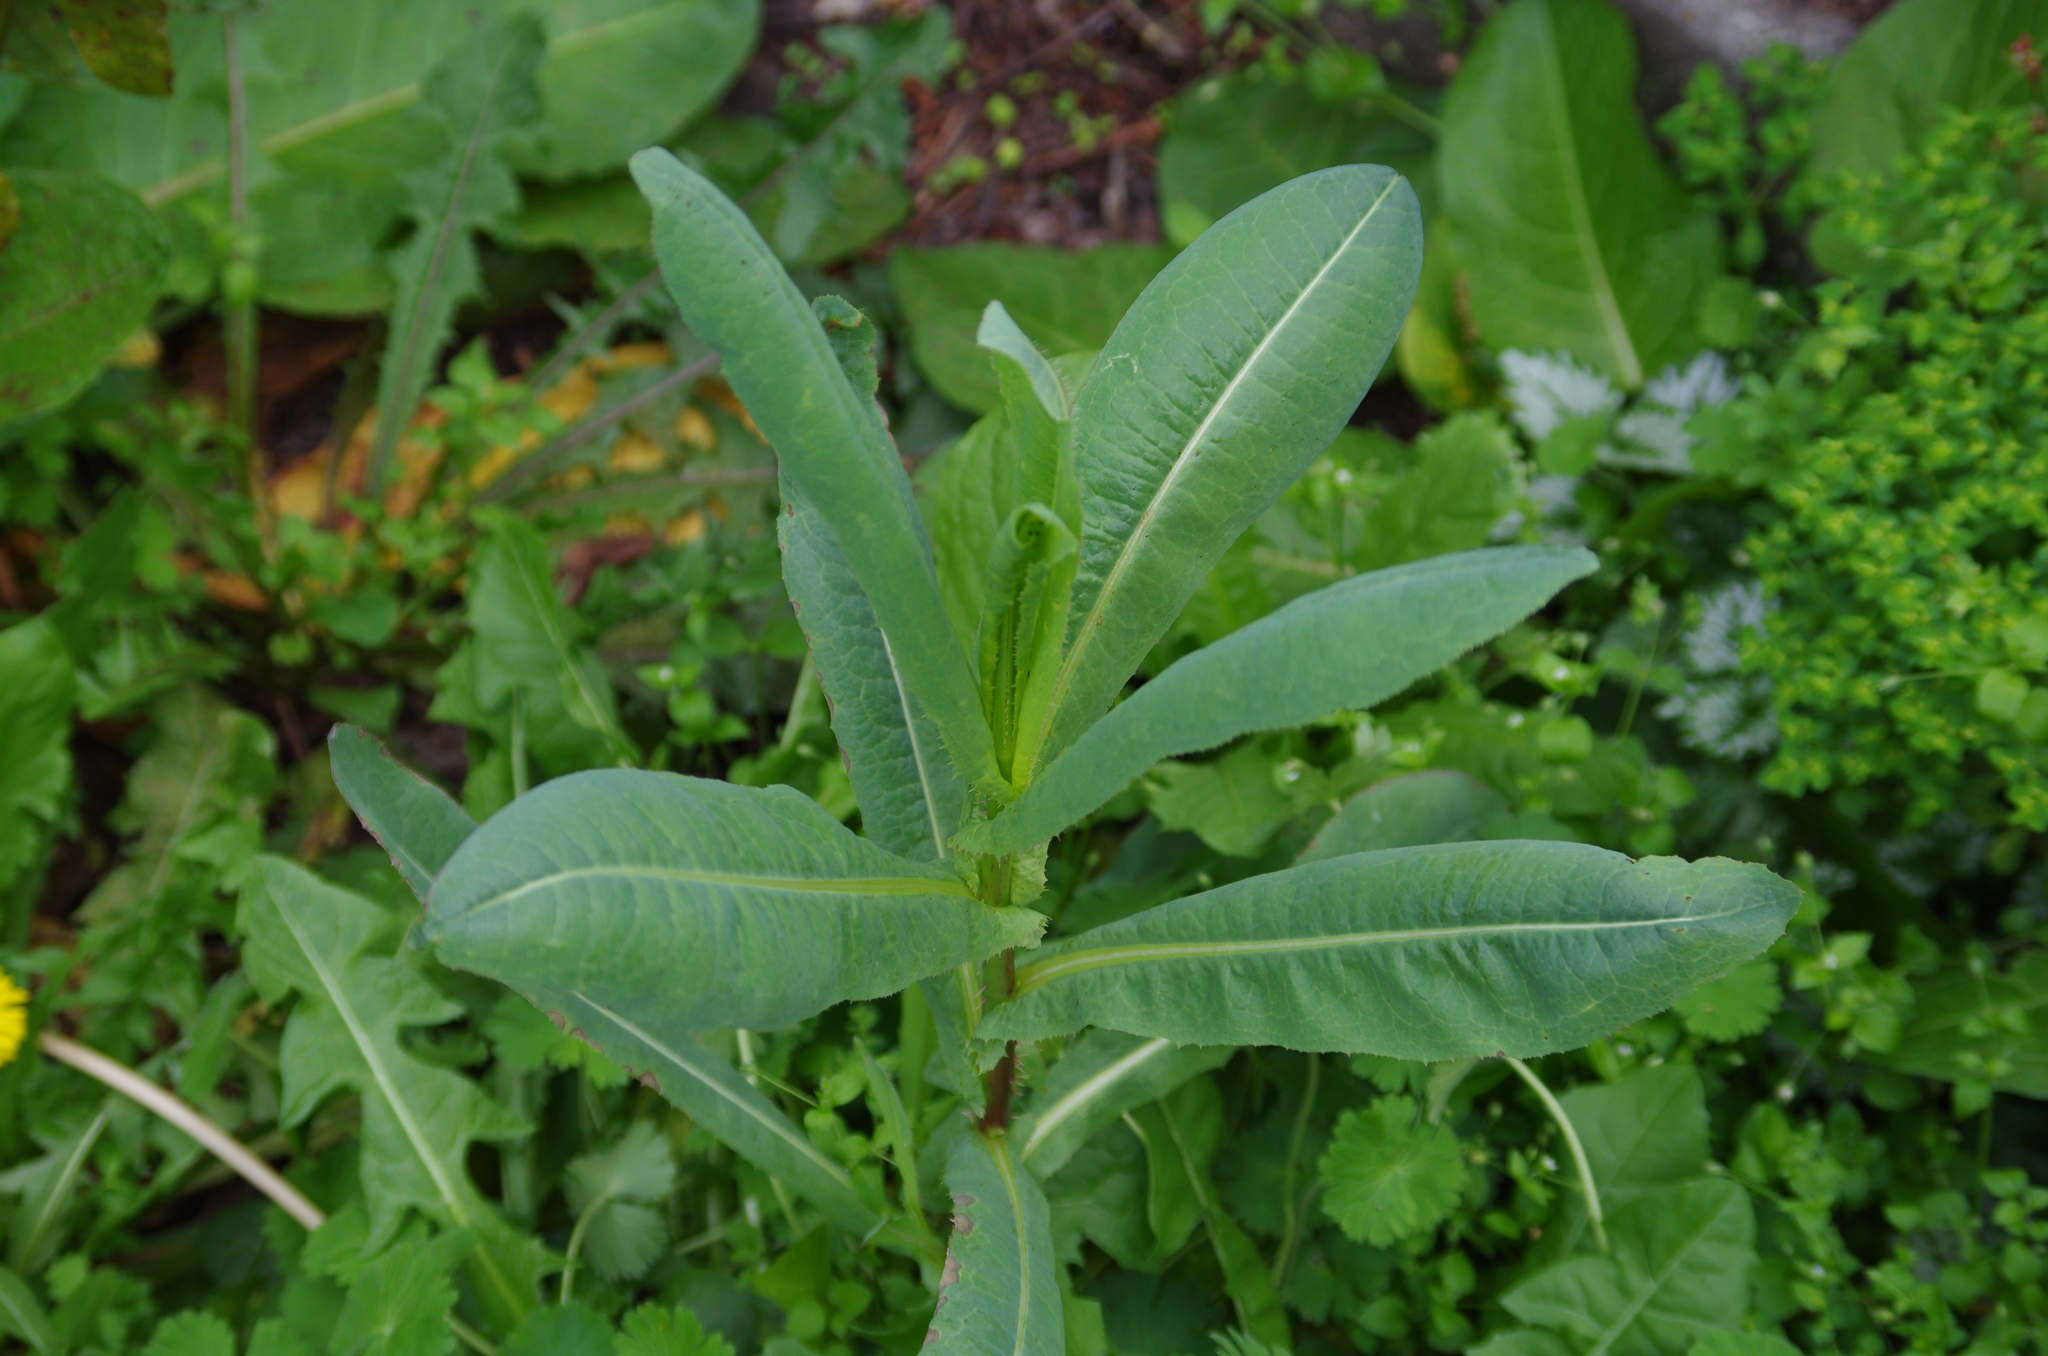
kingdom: Plantae
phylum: Tracheophyta
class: Magnoliopsida
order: Asterales
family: Asteraceae
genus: Lactuca
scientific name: Lactuca serriola
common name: Prickly lettuce
